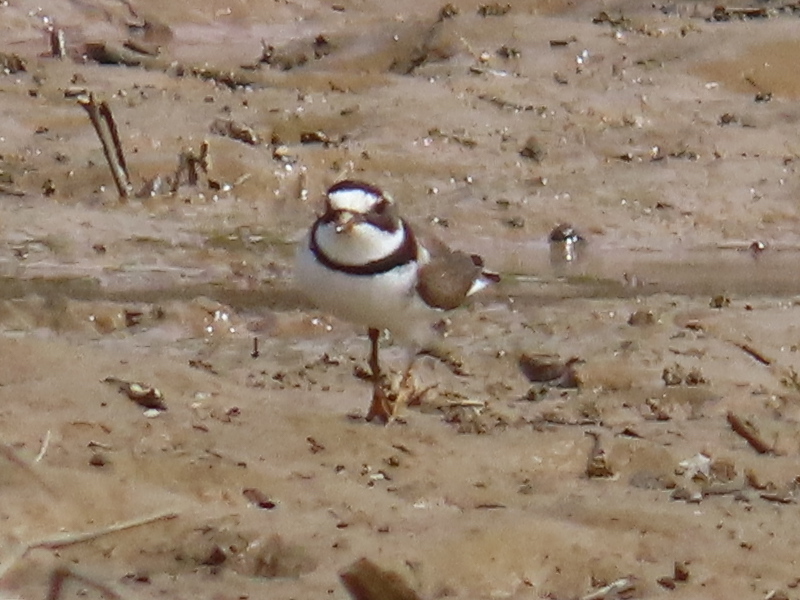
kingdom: Animalia
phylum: Chordata
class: Aves
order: Charadriiformes
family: Charadriidae
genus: Charadrius
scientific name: Charadrius semipalmatus
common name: Semipalmated plover
